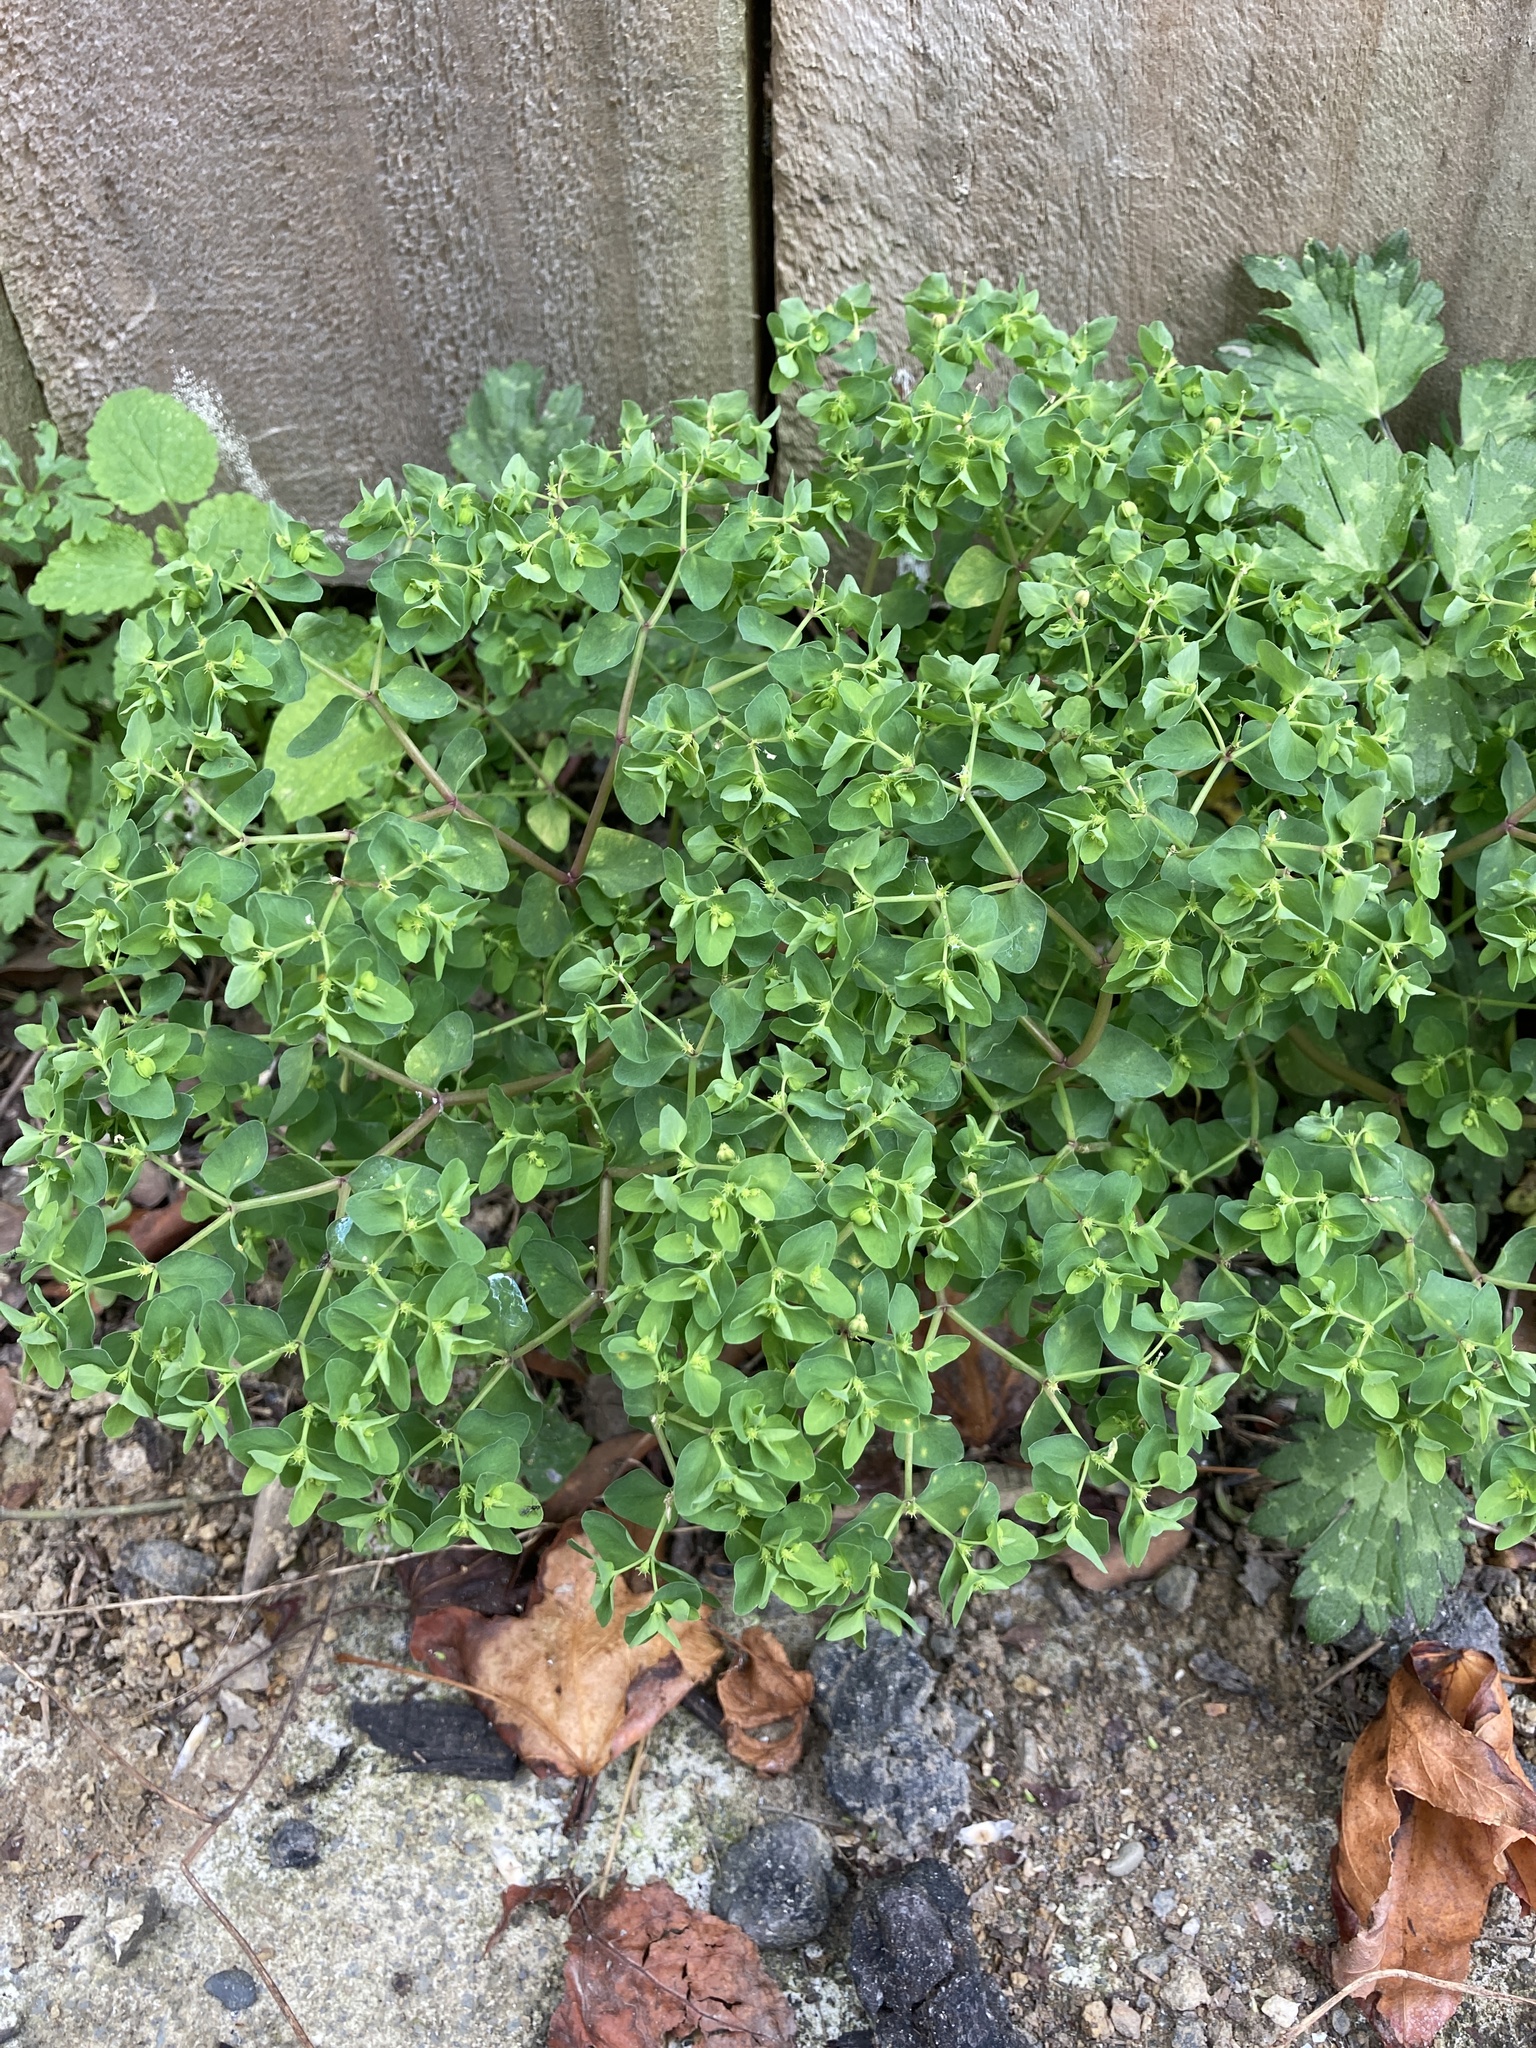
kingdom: Plantae
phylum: Tracheophyta
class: Magnoliopsida
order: Malpighiales
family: Euphorbiaceae
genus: Euphorbia
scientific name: Euphorbia peplus
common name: Petty spurge
